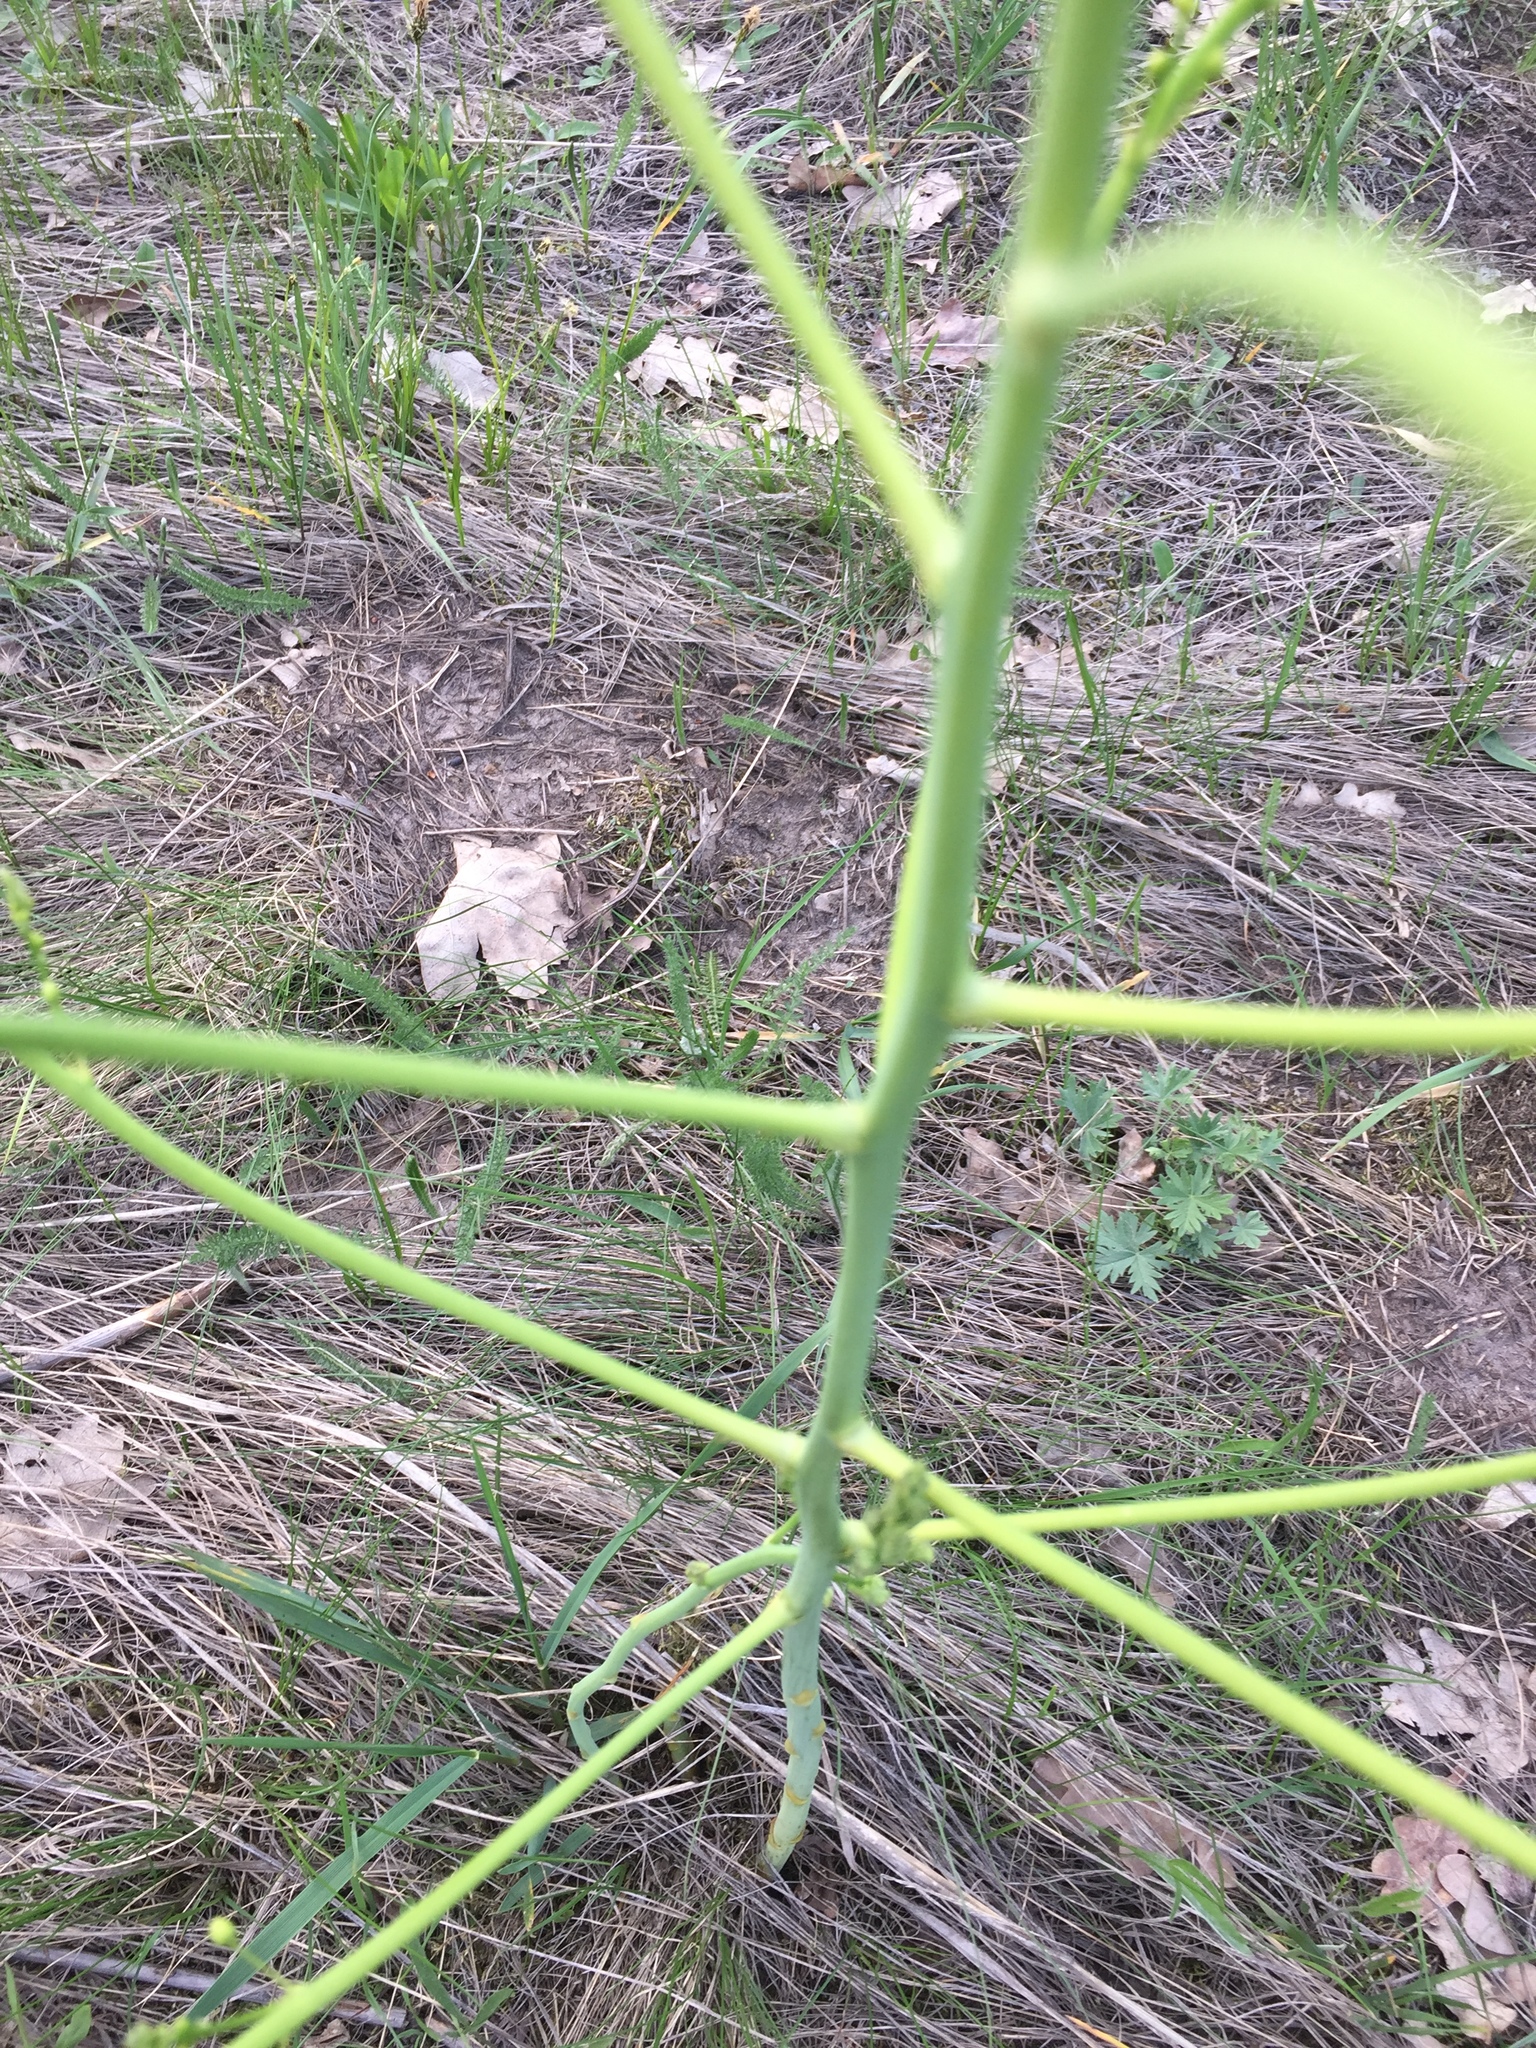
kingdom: Plantae
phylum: Tracheophyta
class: Liliopsida
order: Asparagales
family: Asparagaceae
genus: Asparagus
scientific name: Asparagus officinalis
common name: Garden asparagus
